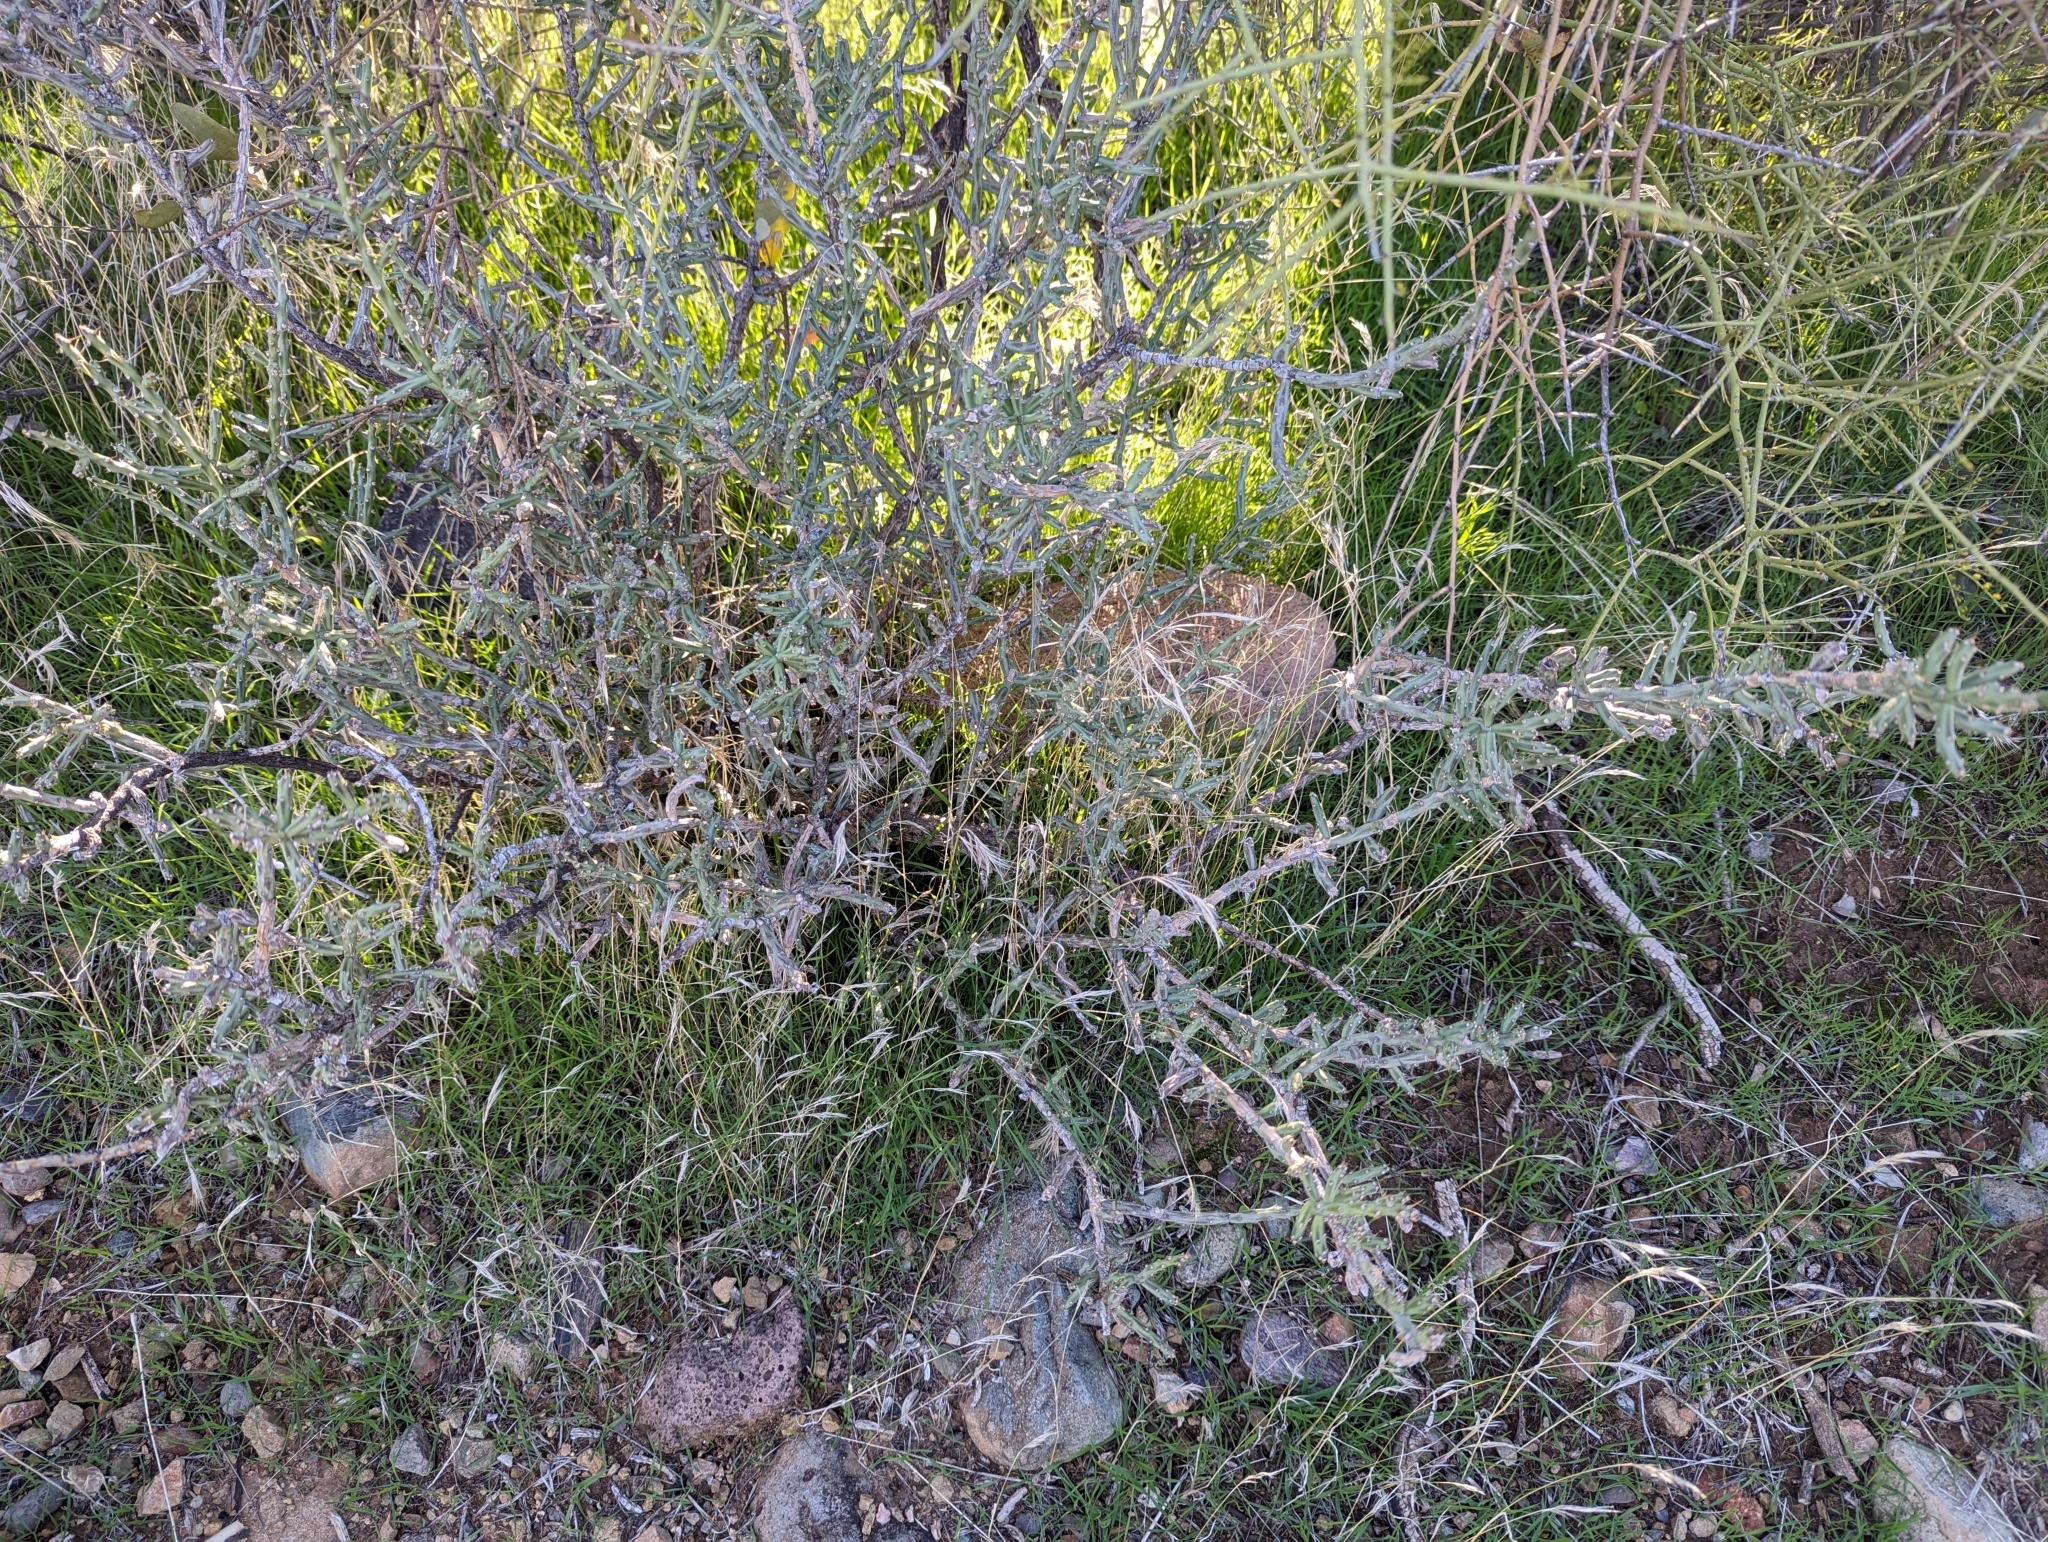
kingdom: Plantae
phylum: Tracheophyta
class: Magnoliopsida
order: Caryophyllales
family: Cactaceae
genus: Cylindropuntia
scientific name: Cylindropuntia leptocaulis
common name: Christmas cactus
